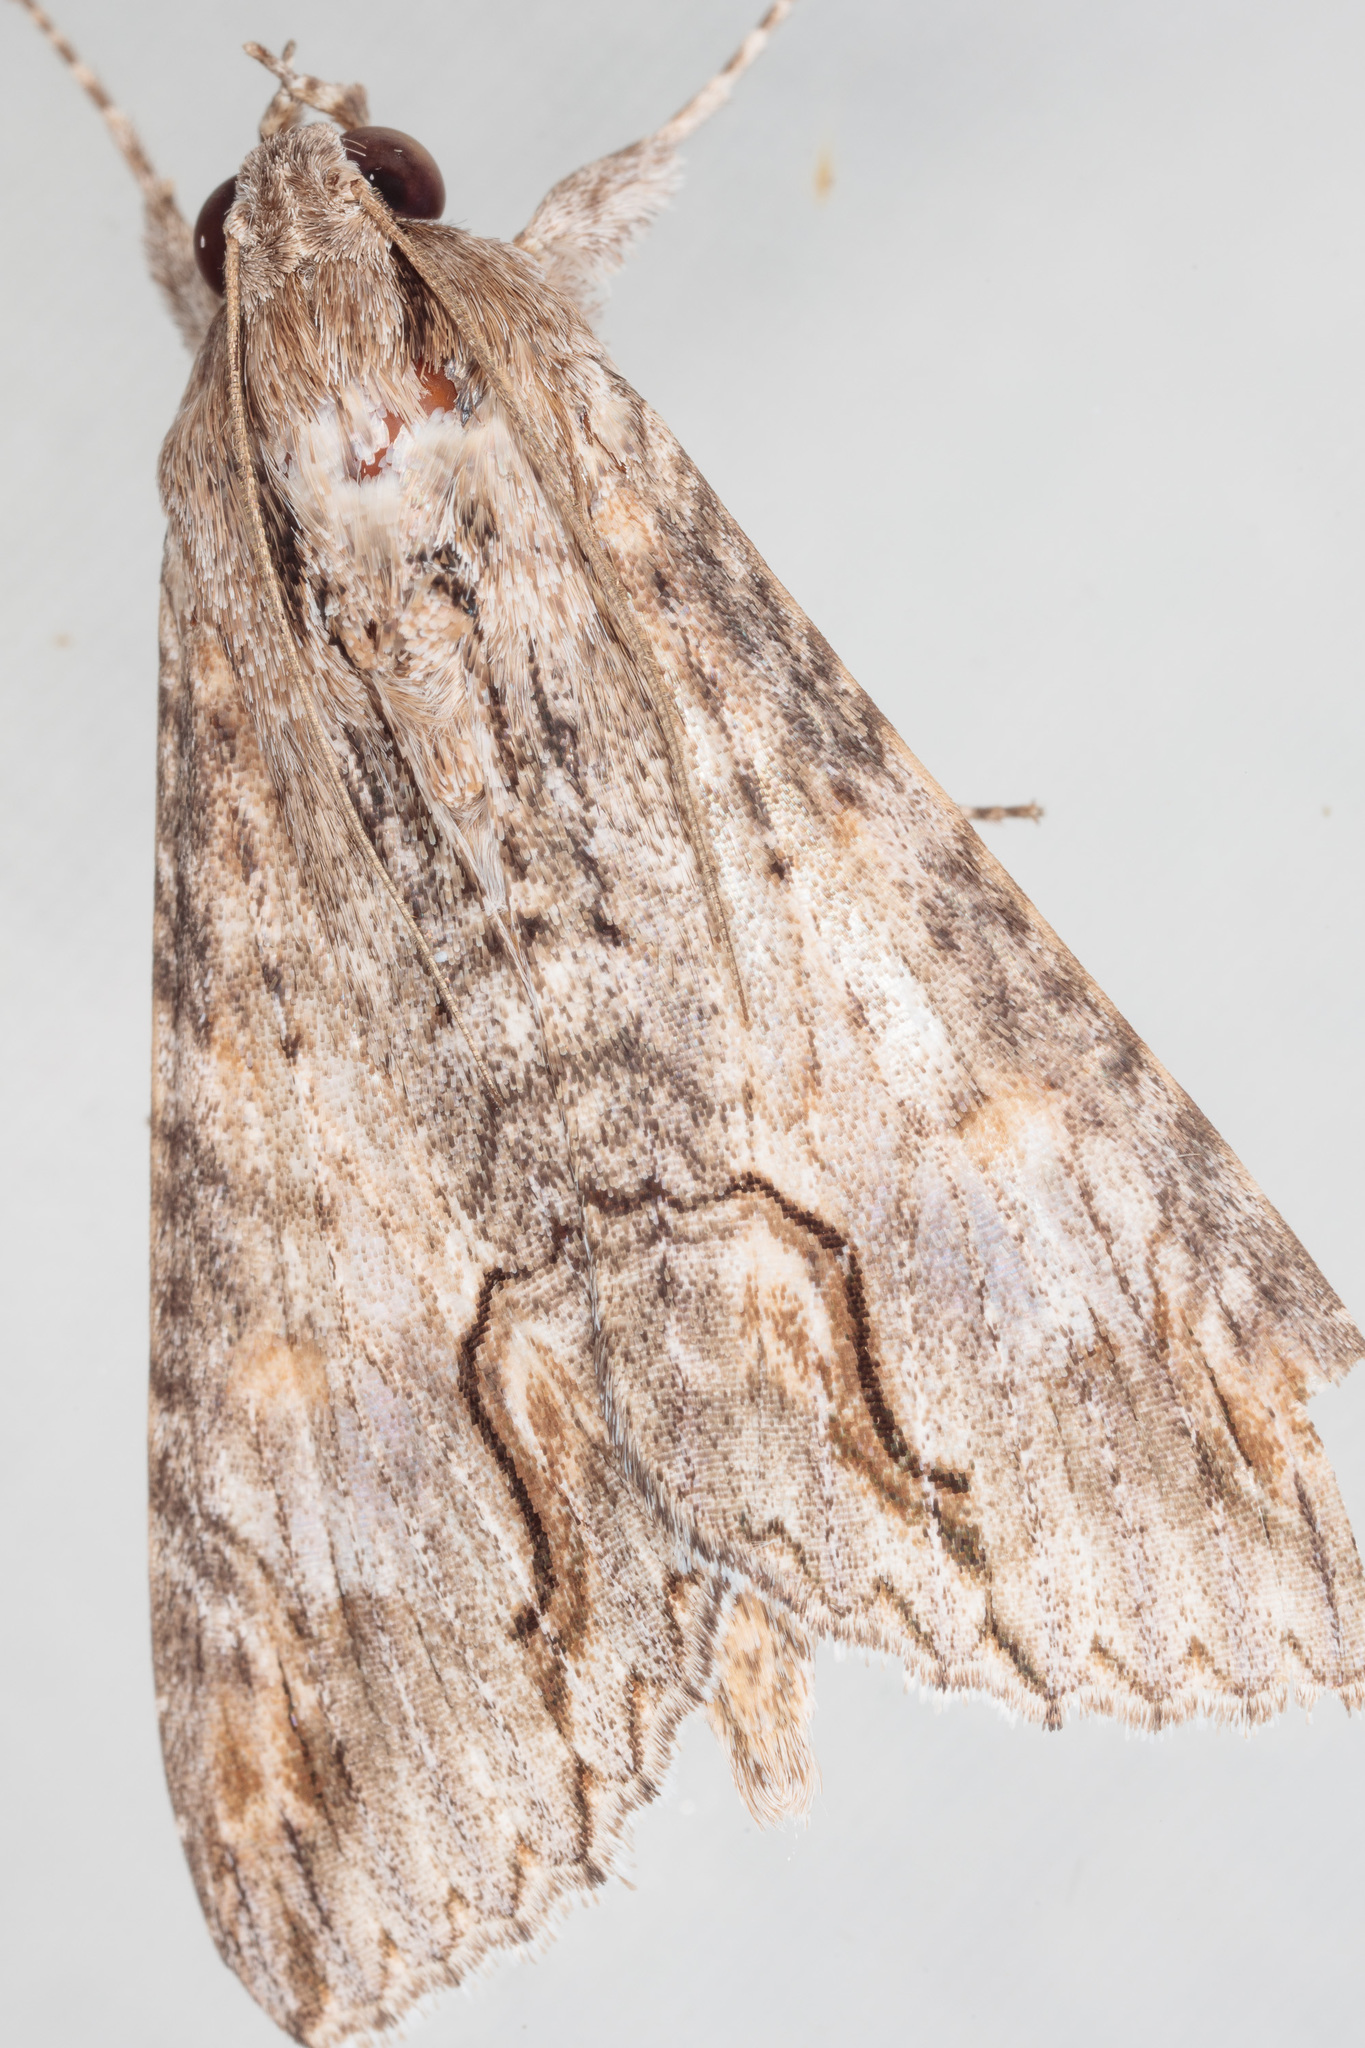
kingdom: Animalia
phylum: Arthropoda
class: Insecta
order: Lepidoptera
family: Erebidae
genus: Melipotis
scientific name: Melipotis acontioides
